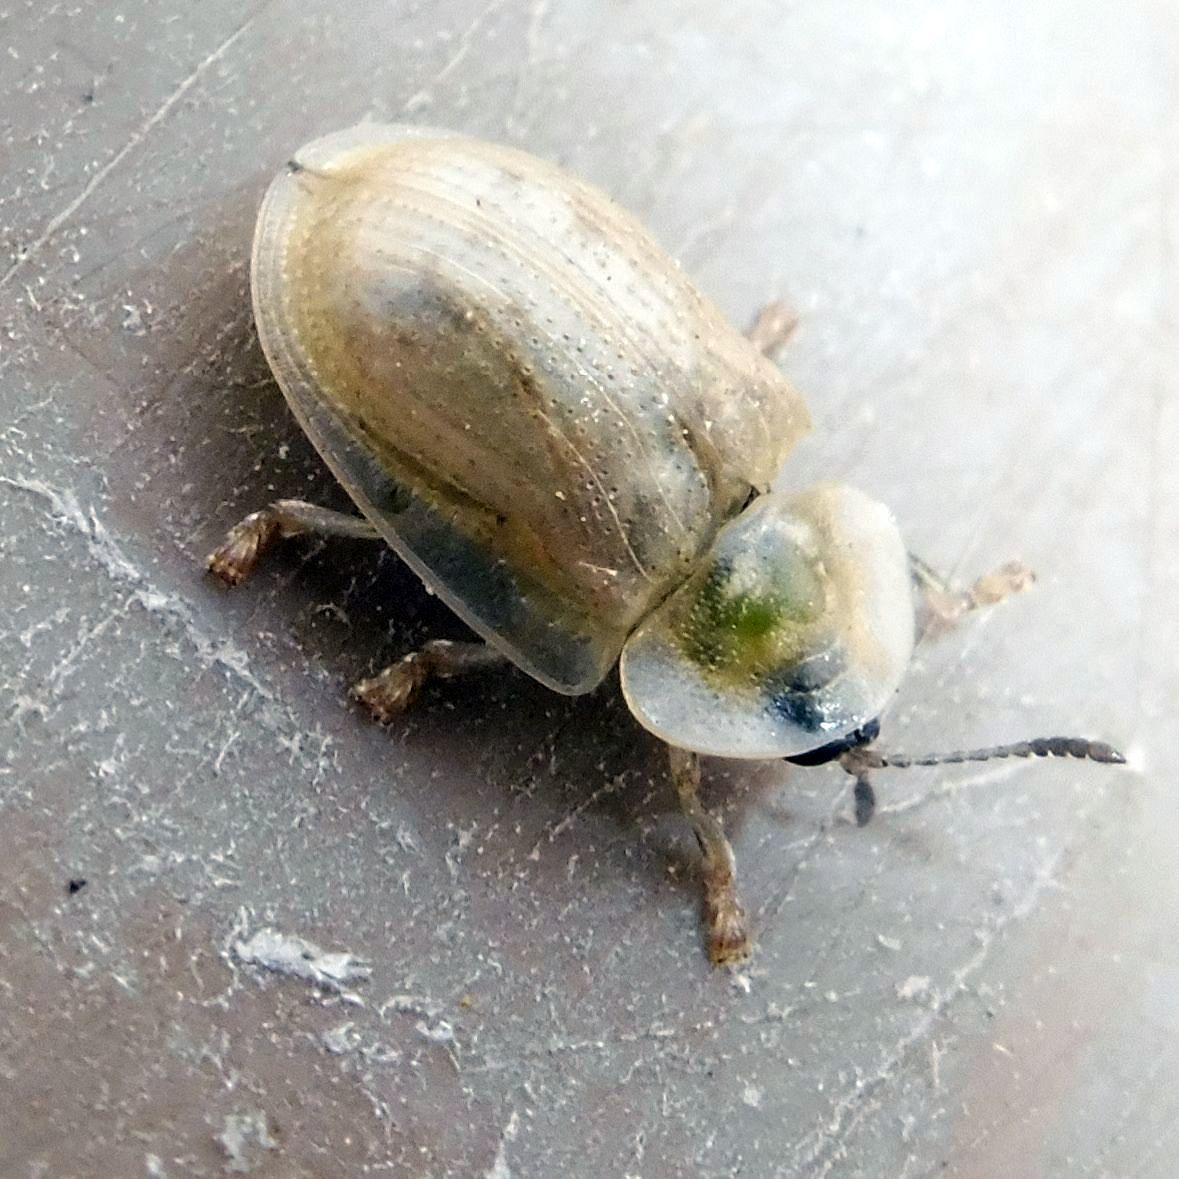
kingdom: Animalia
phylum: Arthropoda
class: Insecta
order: Coleoptera
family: Chrysomelidae
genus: Cassida
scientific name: Cassida flaveola
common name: Pale tortoise beetle
